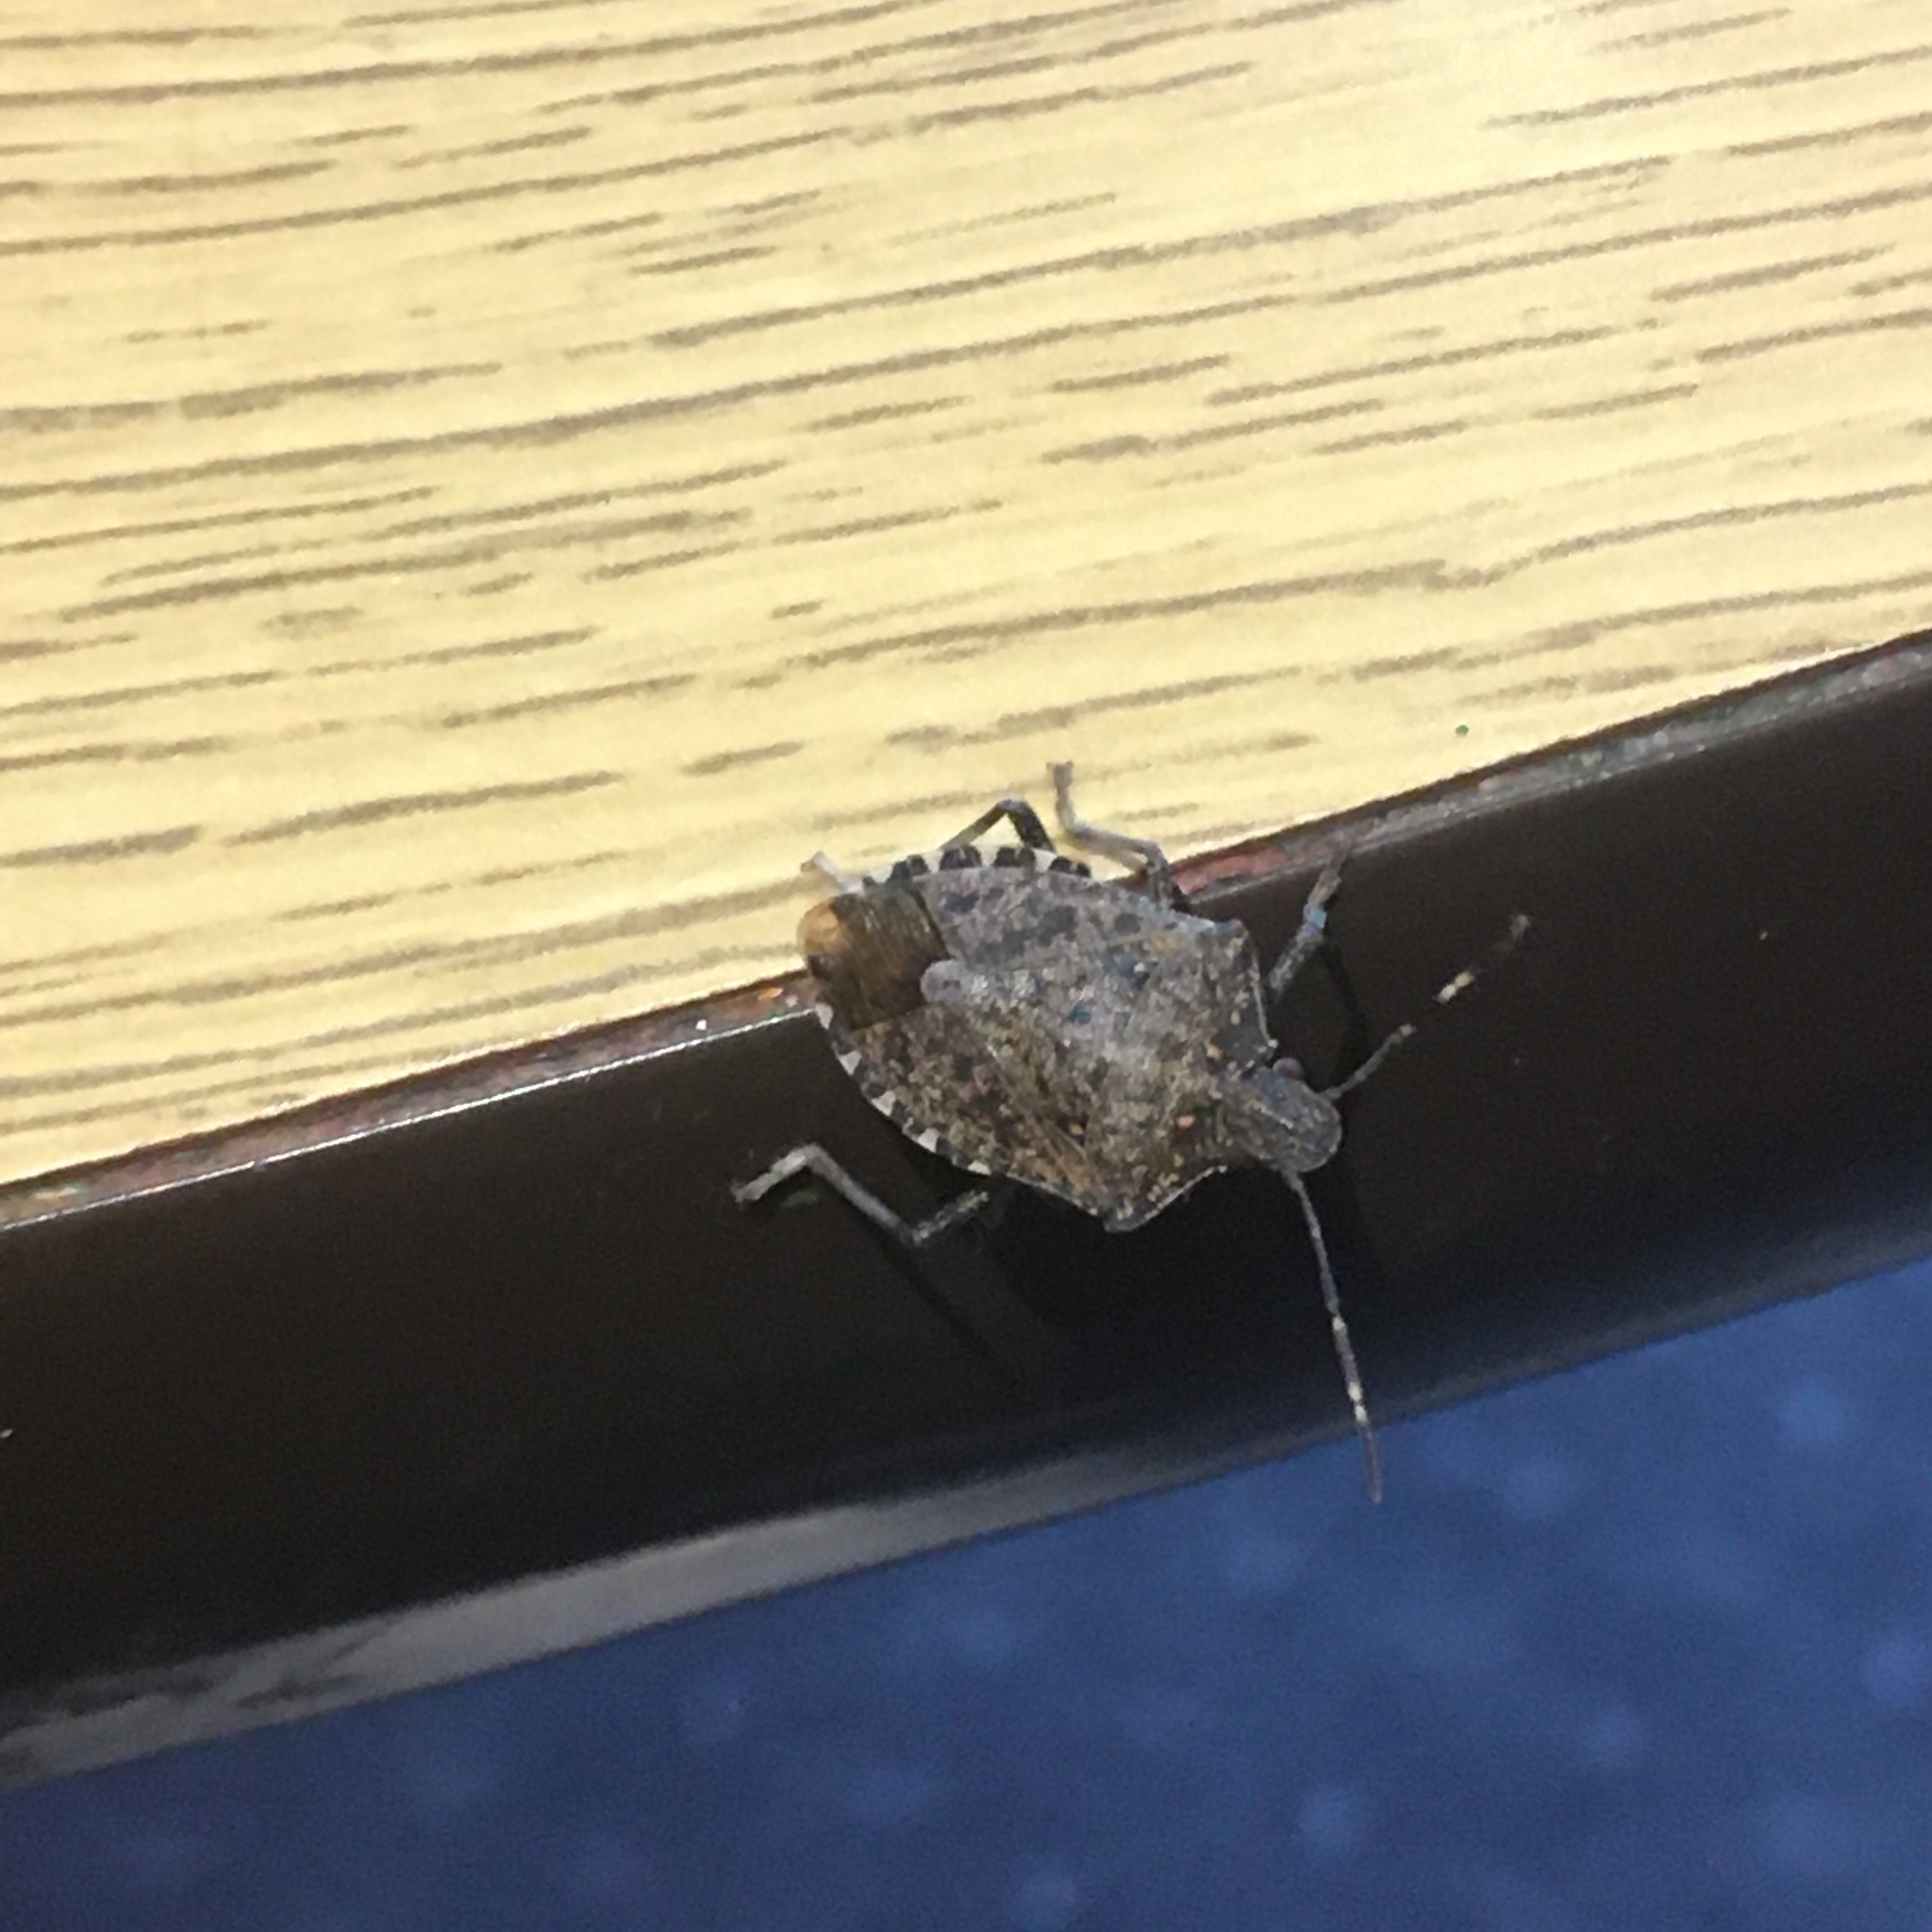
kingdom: Animalia
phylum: Arthropoda
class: Insecta
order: Hemiptera
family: Pentatomidae
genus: Halyomorpha
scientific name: Halyomorpha halys
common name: Brown marmorated stink bug
